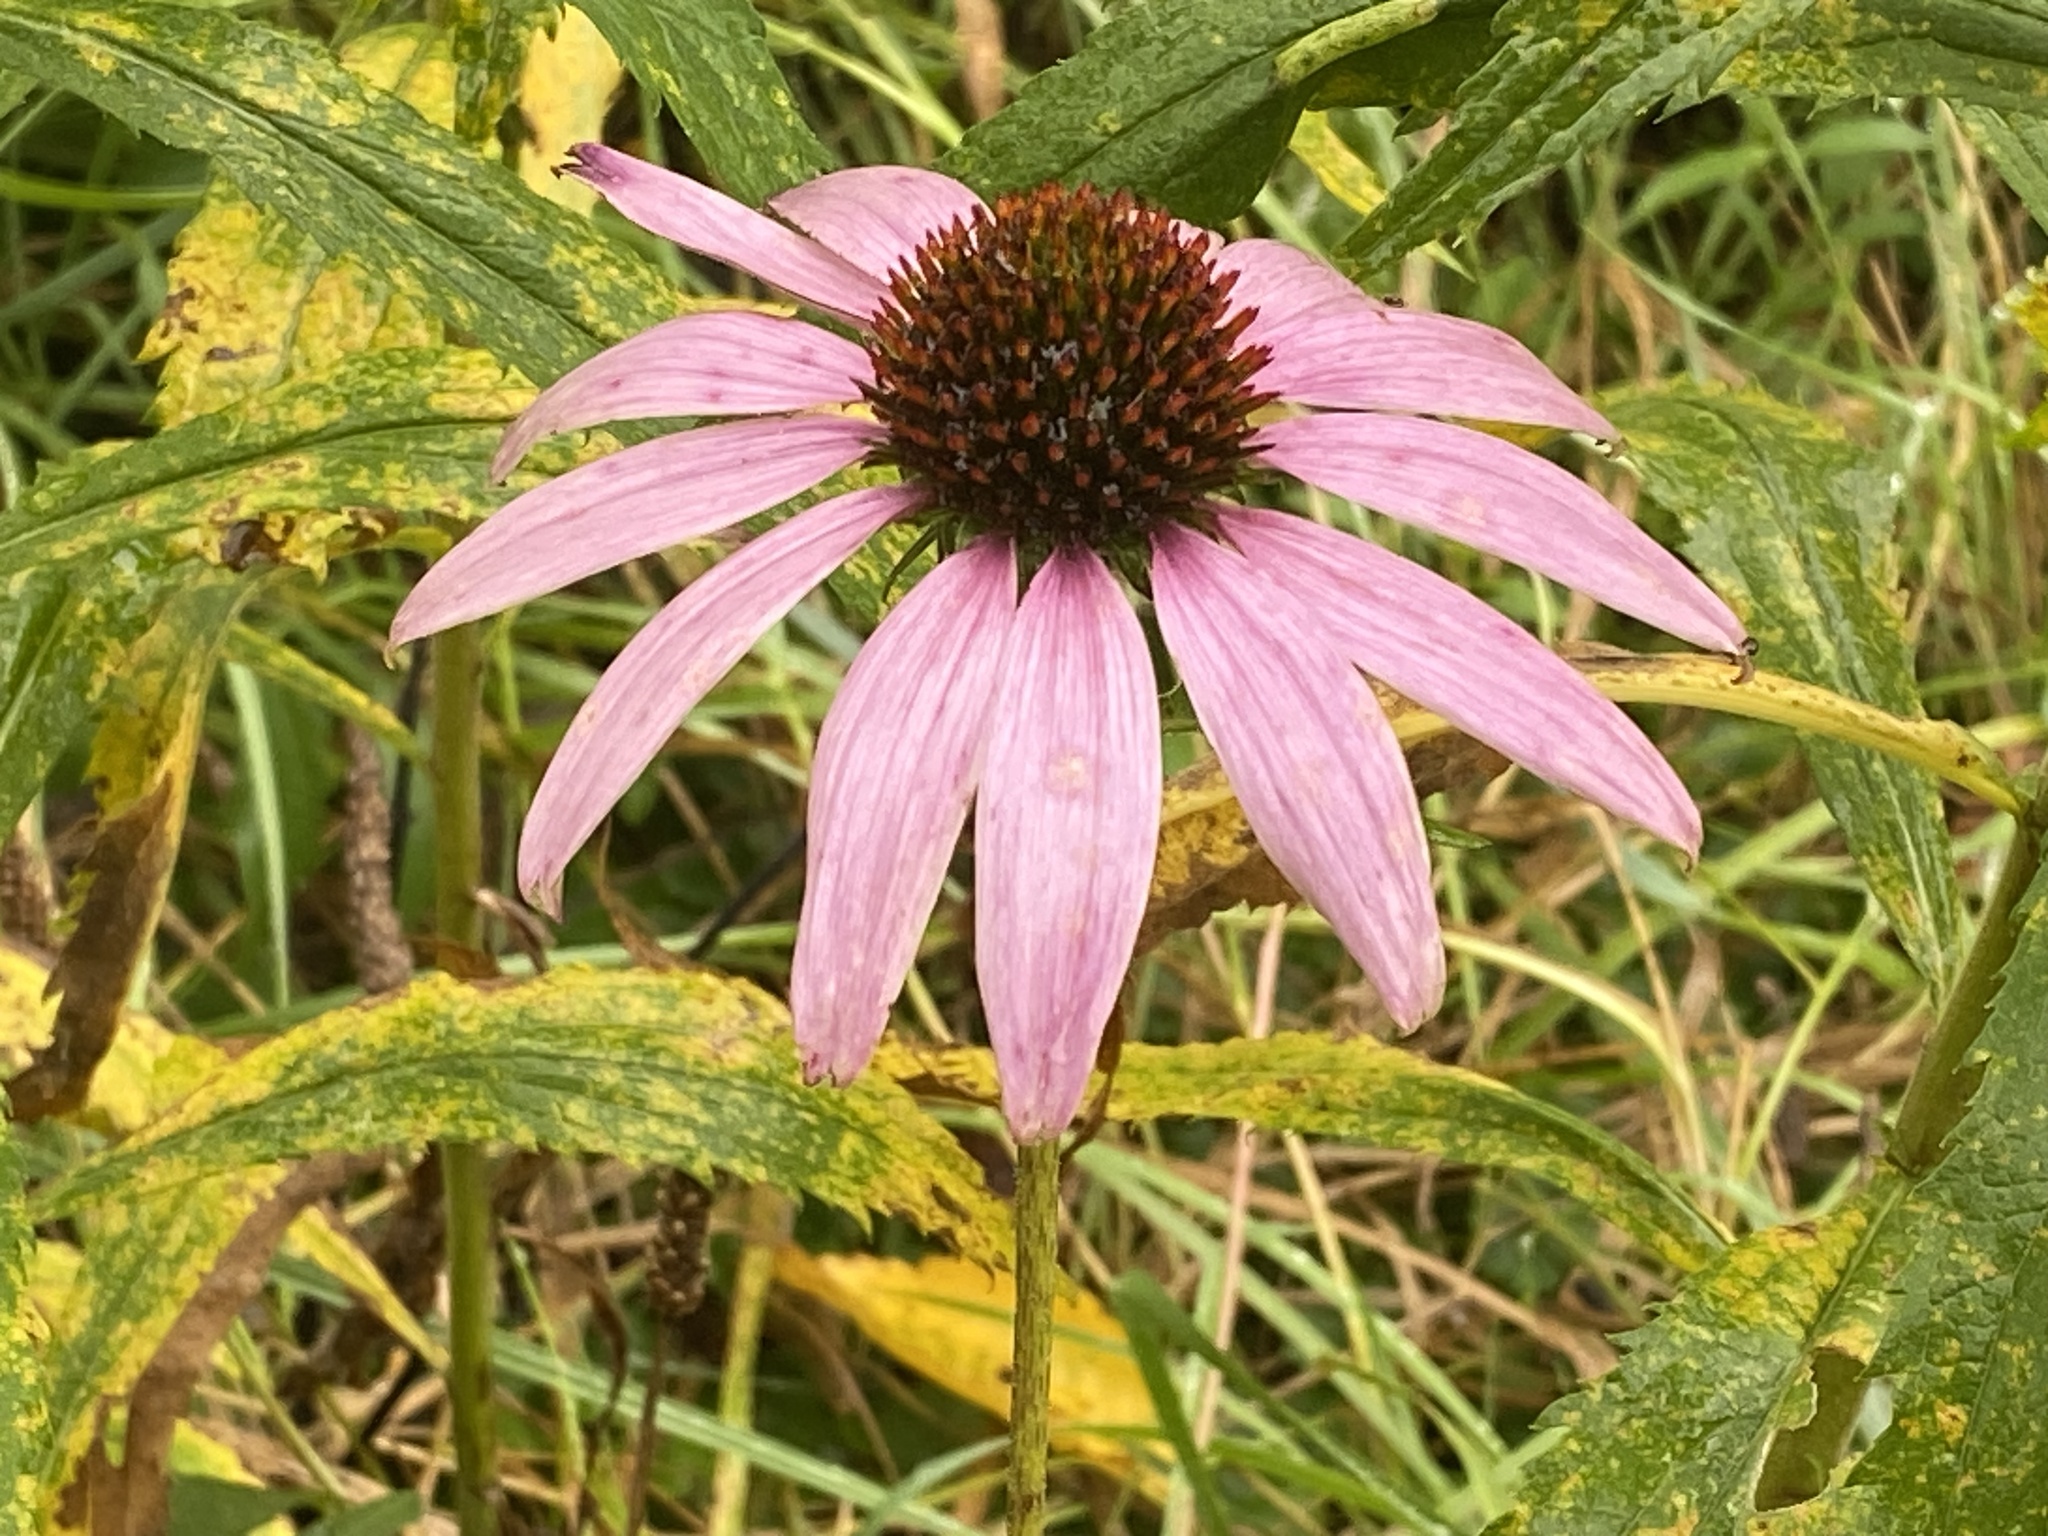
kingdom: Plantae
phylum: Tracheophyta
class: Magnoliopsida
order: Asterales
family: Asteraceae
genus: Echinacea
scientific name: Echinacea purpurea
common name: Broad-leaved purple coneflower
